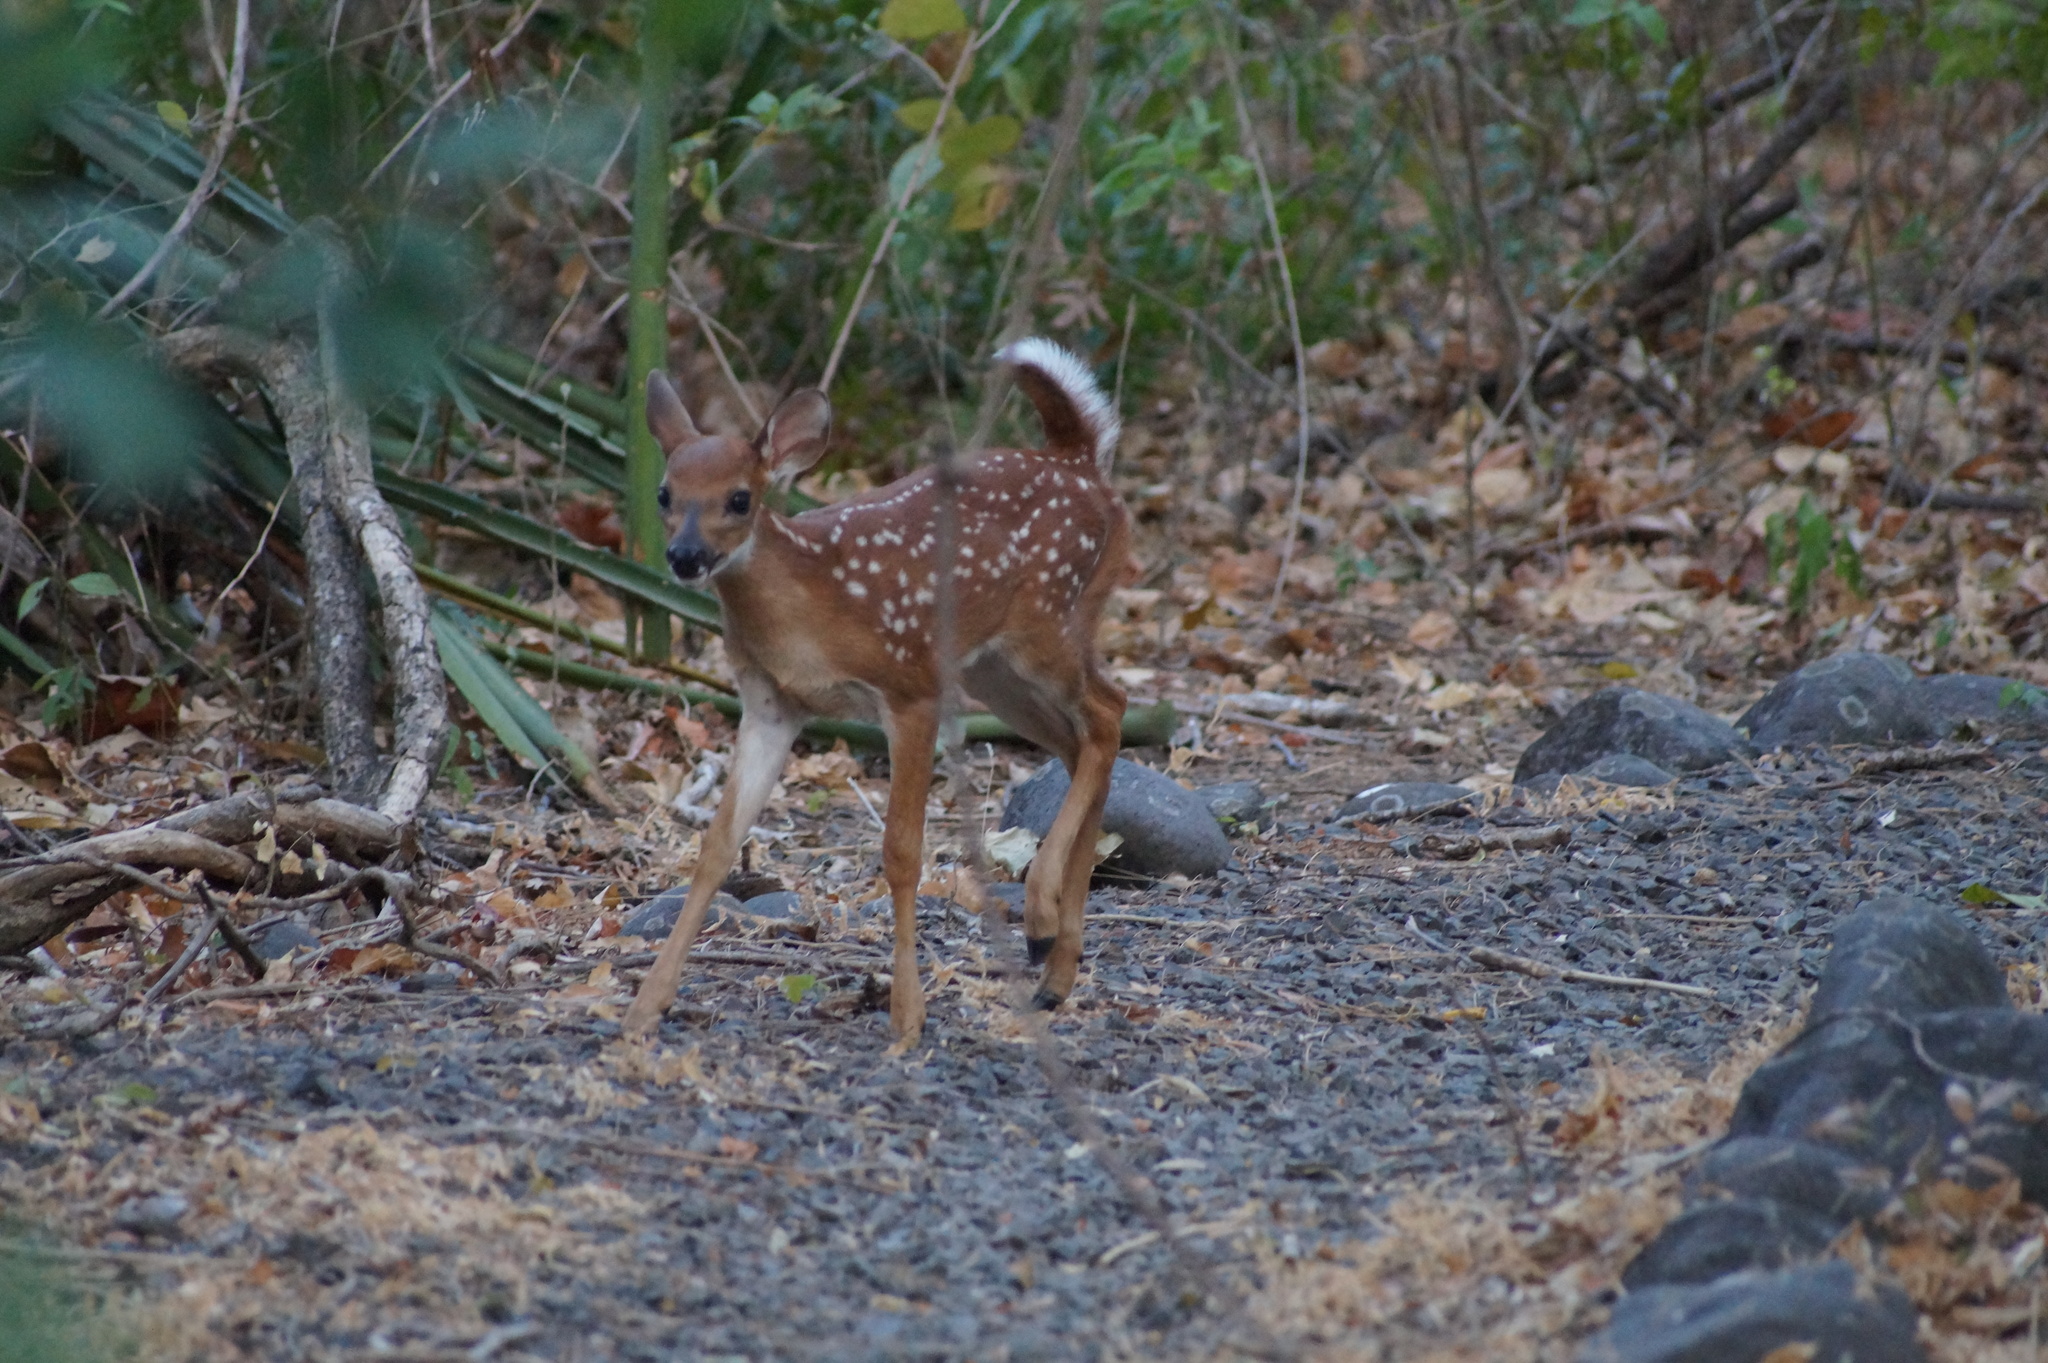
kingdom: Animalia
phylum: Chordata
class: Mammalia
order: Artiodactyla
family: Cervidae
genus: Odocoileus
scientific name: Odocoileus virginianus
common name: White-tailed deer
